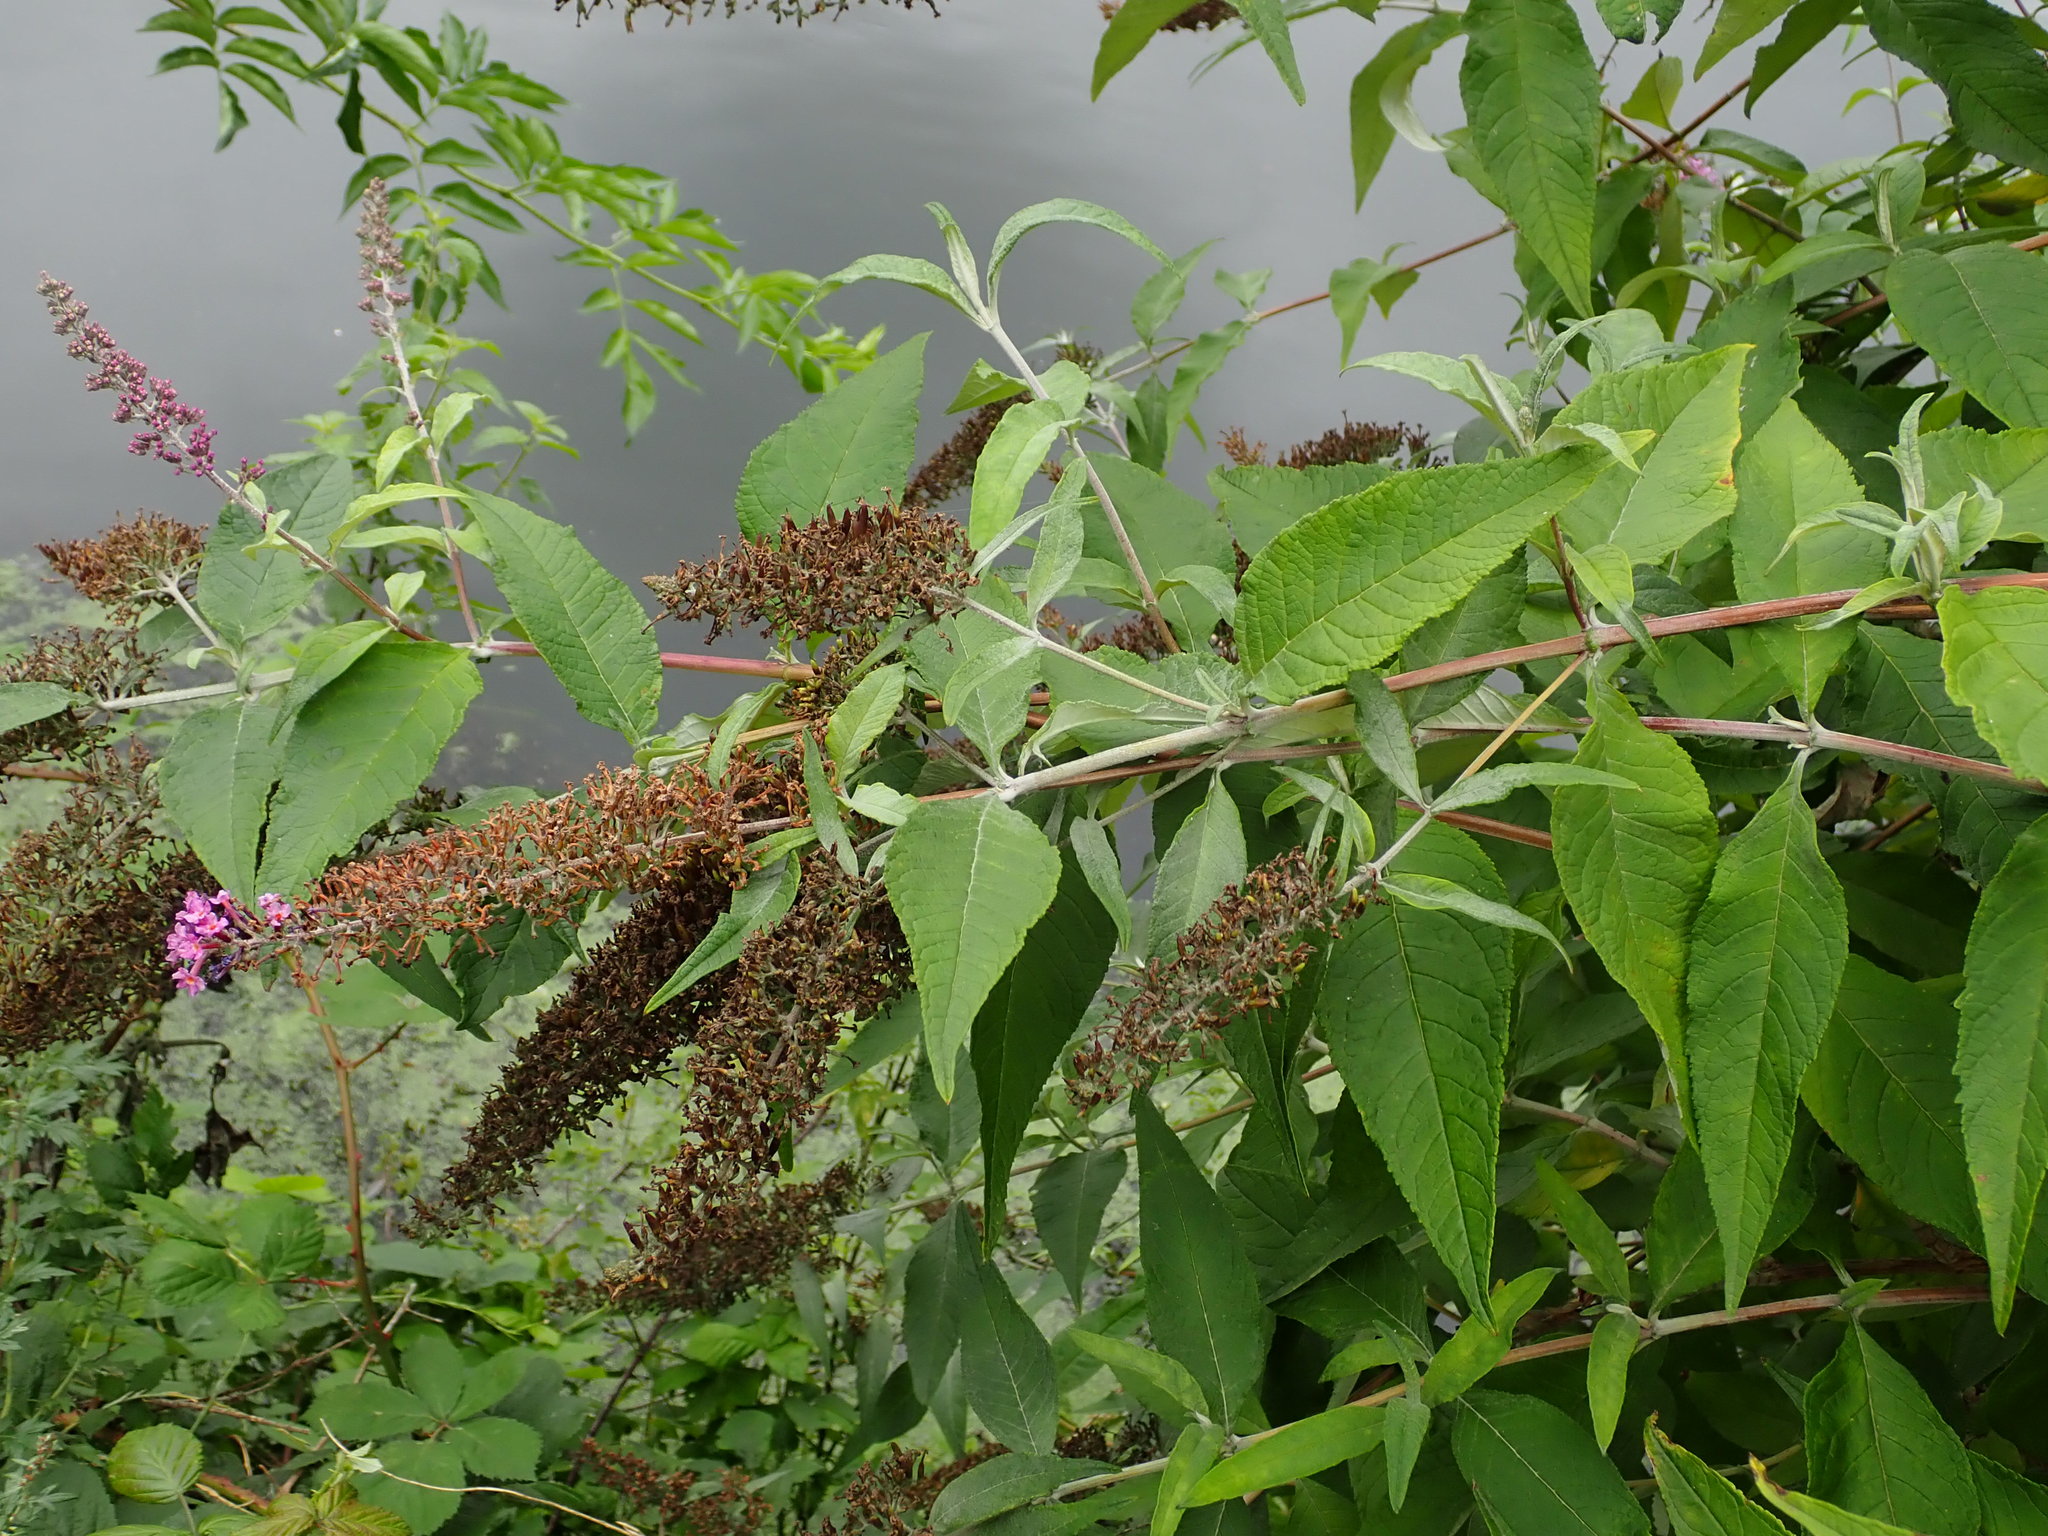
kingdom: Plantae
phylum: Tracheophyta
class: Magnoliopsida
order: Lamiales
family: Scrophulariaceae
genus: Buddleja
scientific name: Buddleja davidii
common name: Butterfly-bush
